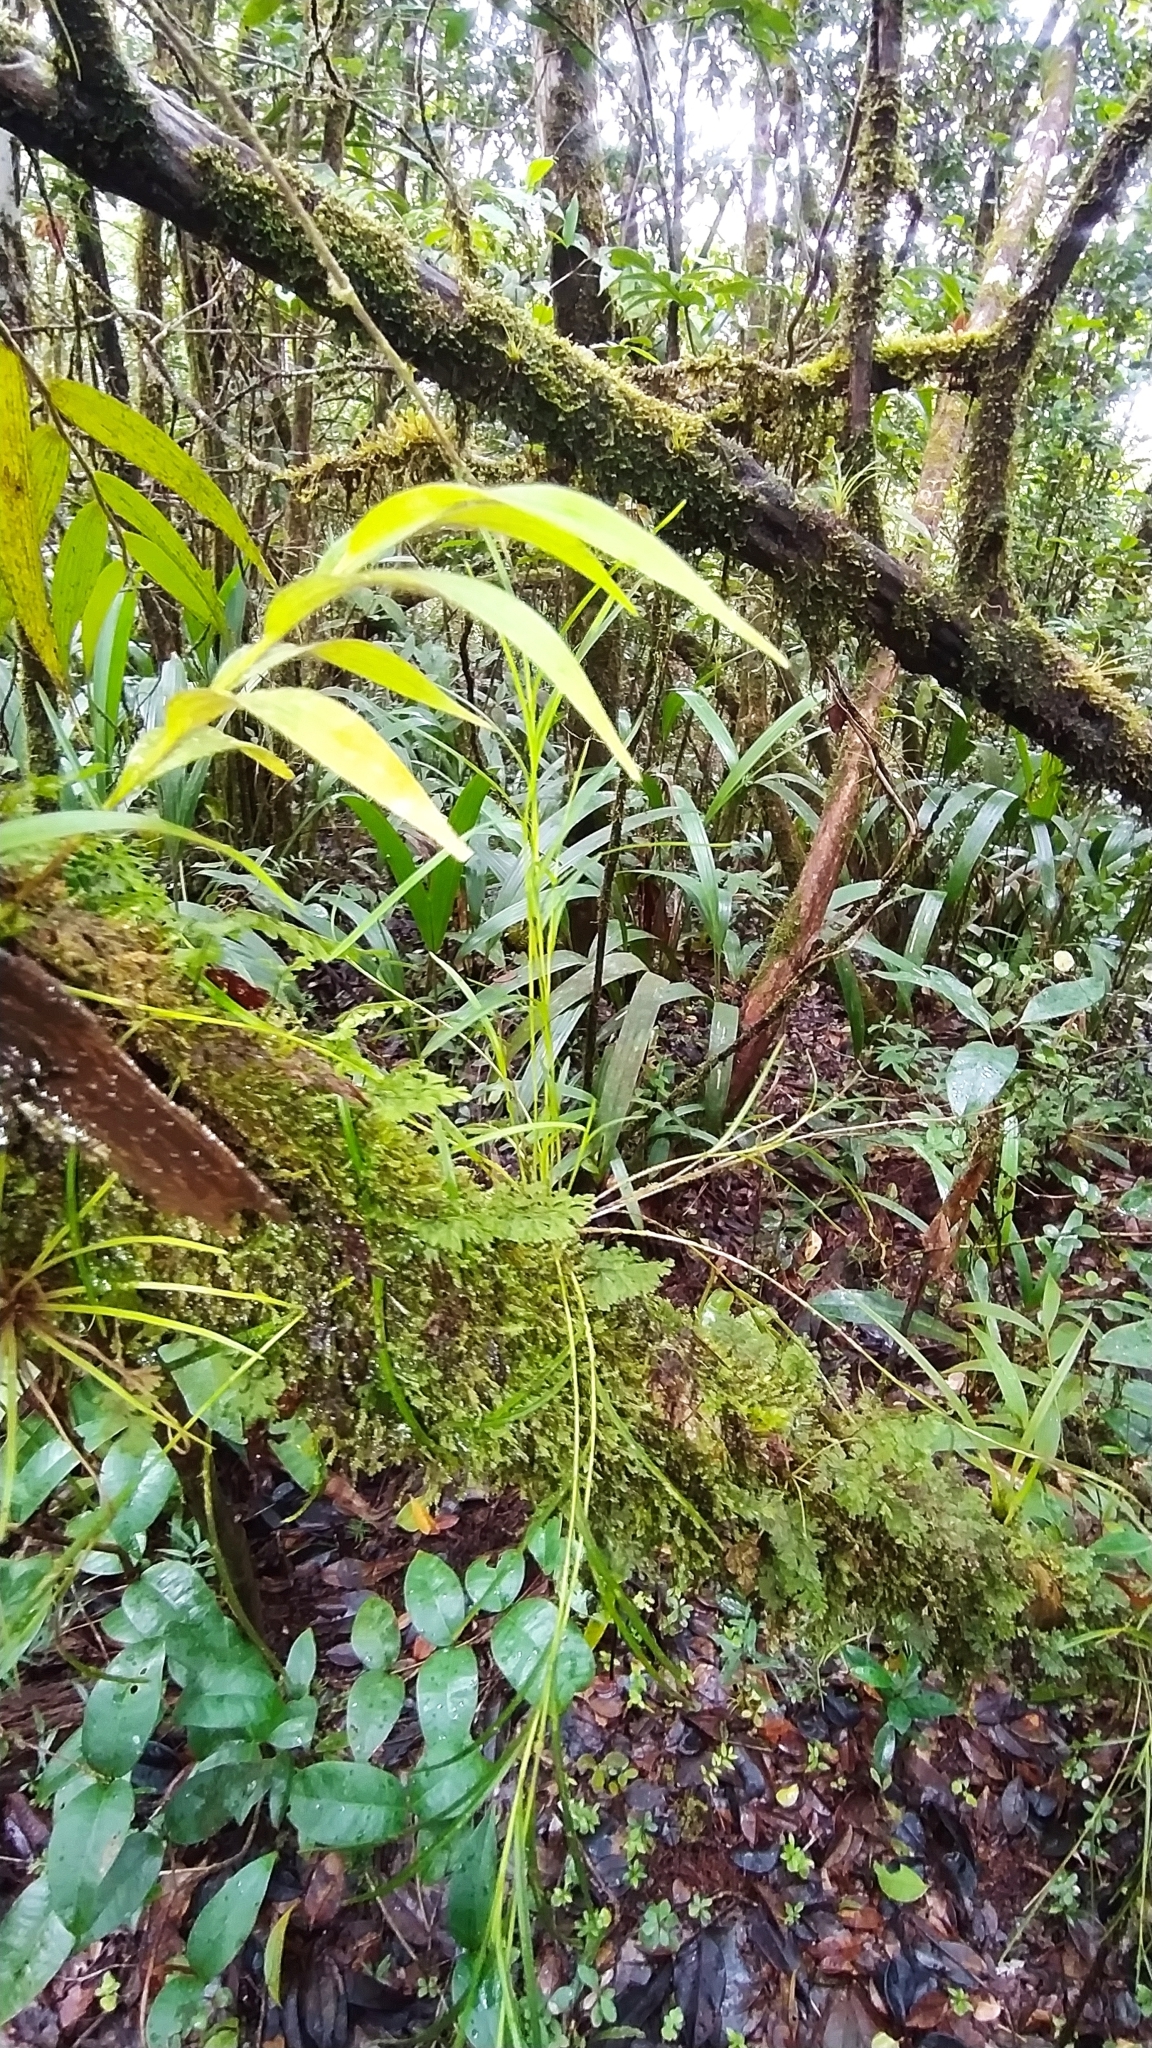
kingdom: Plantae
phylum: Tracheophyta
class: Liliopsida
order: Asparagales
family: Orchidaceae
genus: Elleanthus
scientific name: Elleanthus graminifolius
